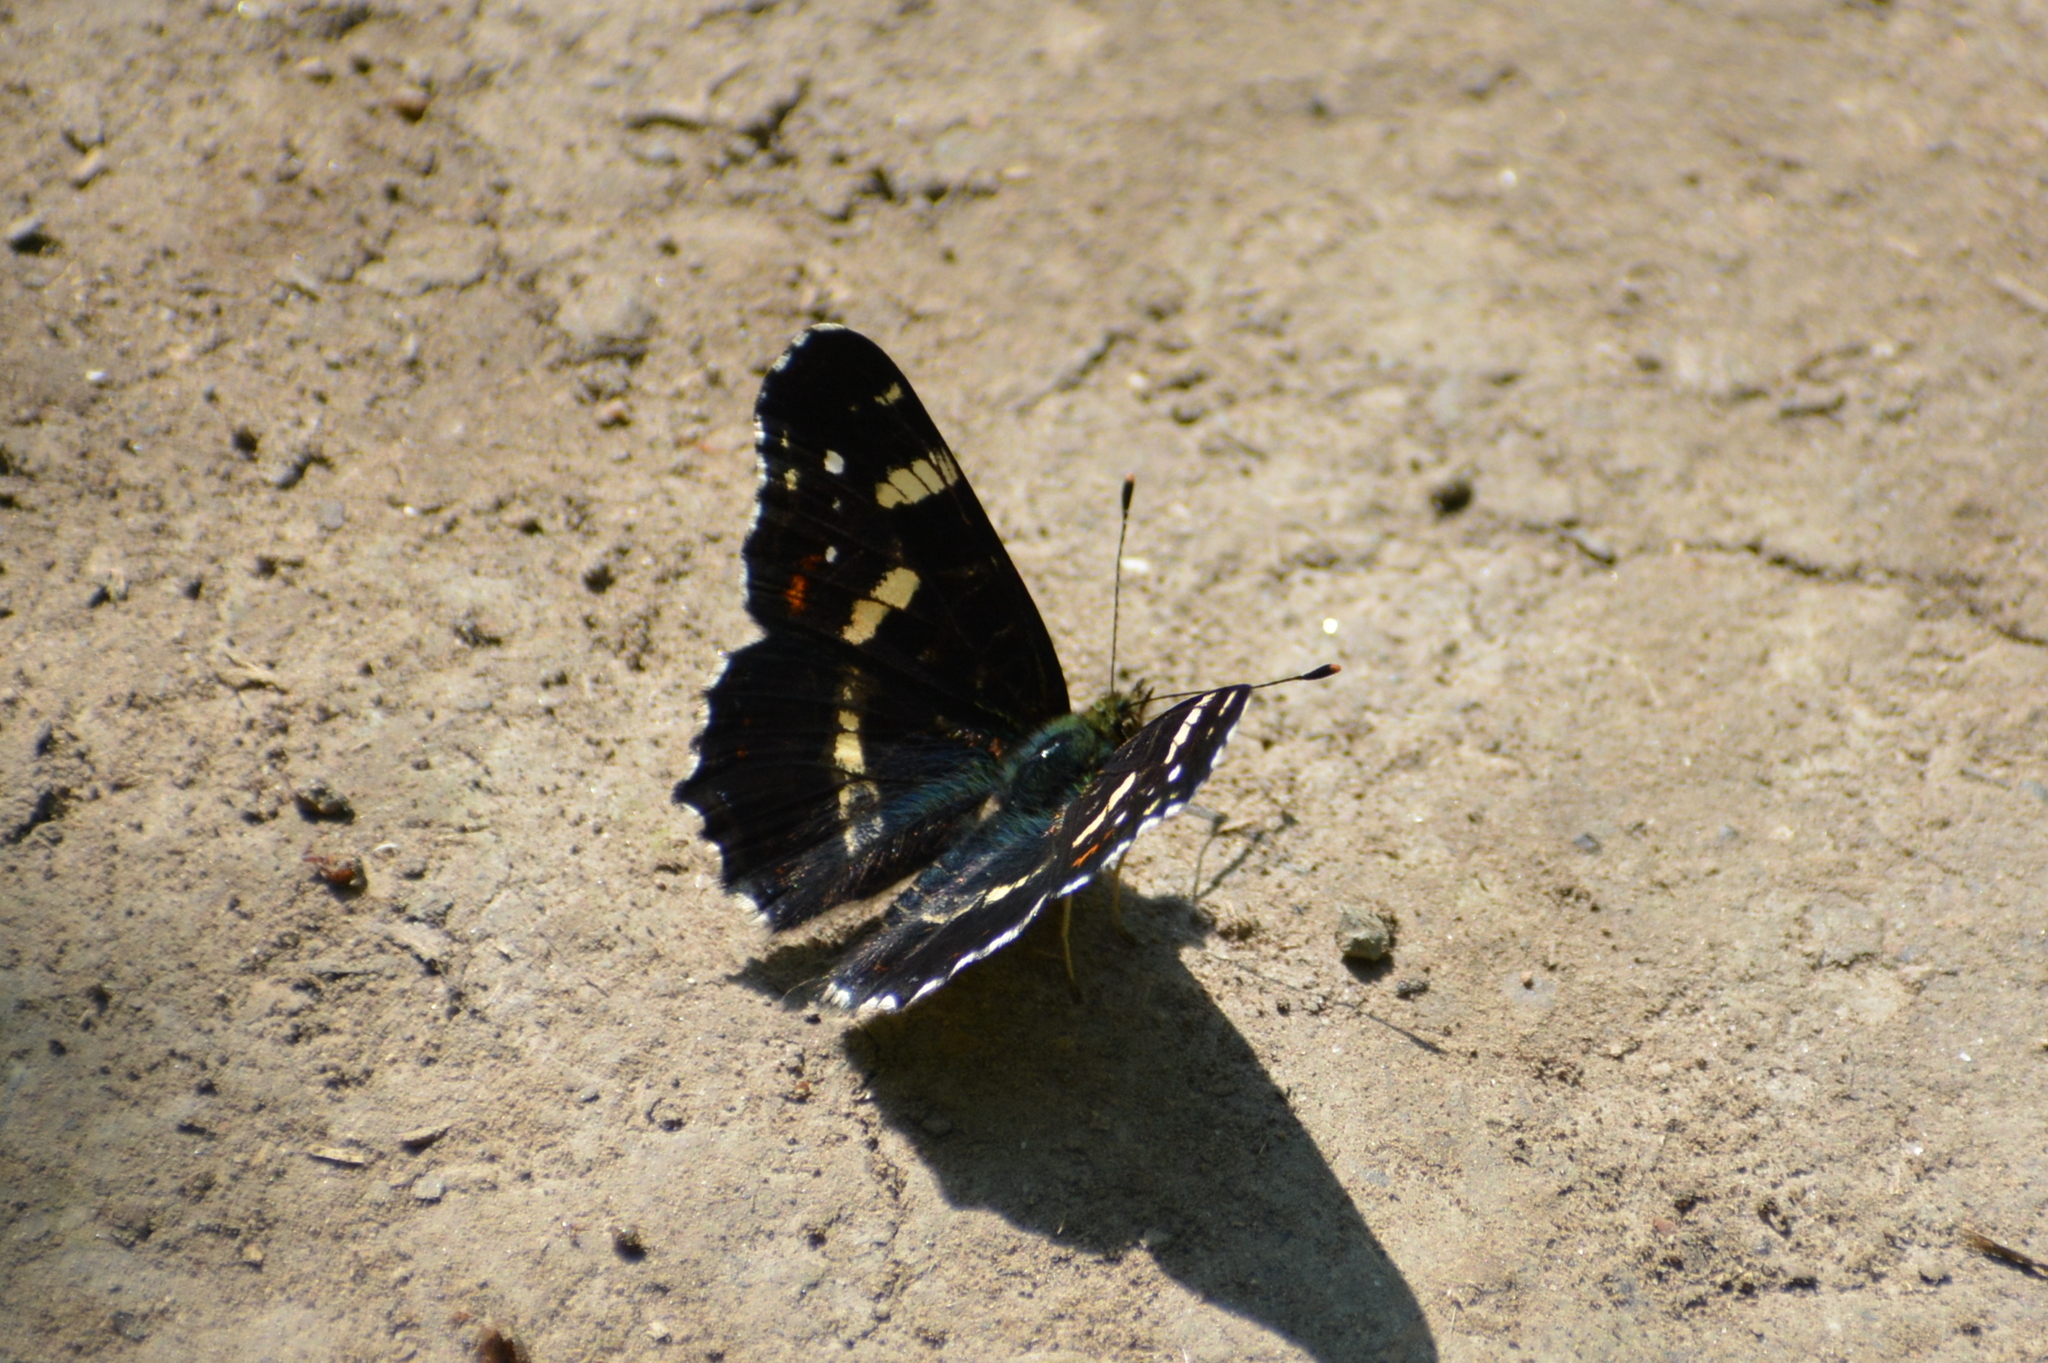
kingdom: Animalia
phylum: Arthropoda
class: Insecta
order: Lepidoptera
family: Nymphalidae
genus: Araschnia
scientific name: Araschnia levana
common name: Map butterfly
